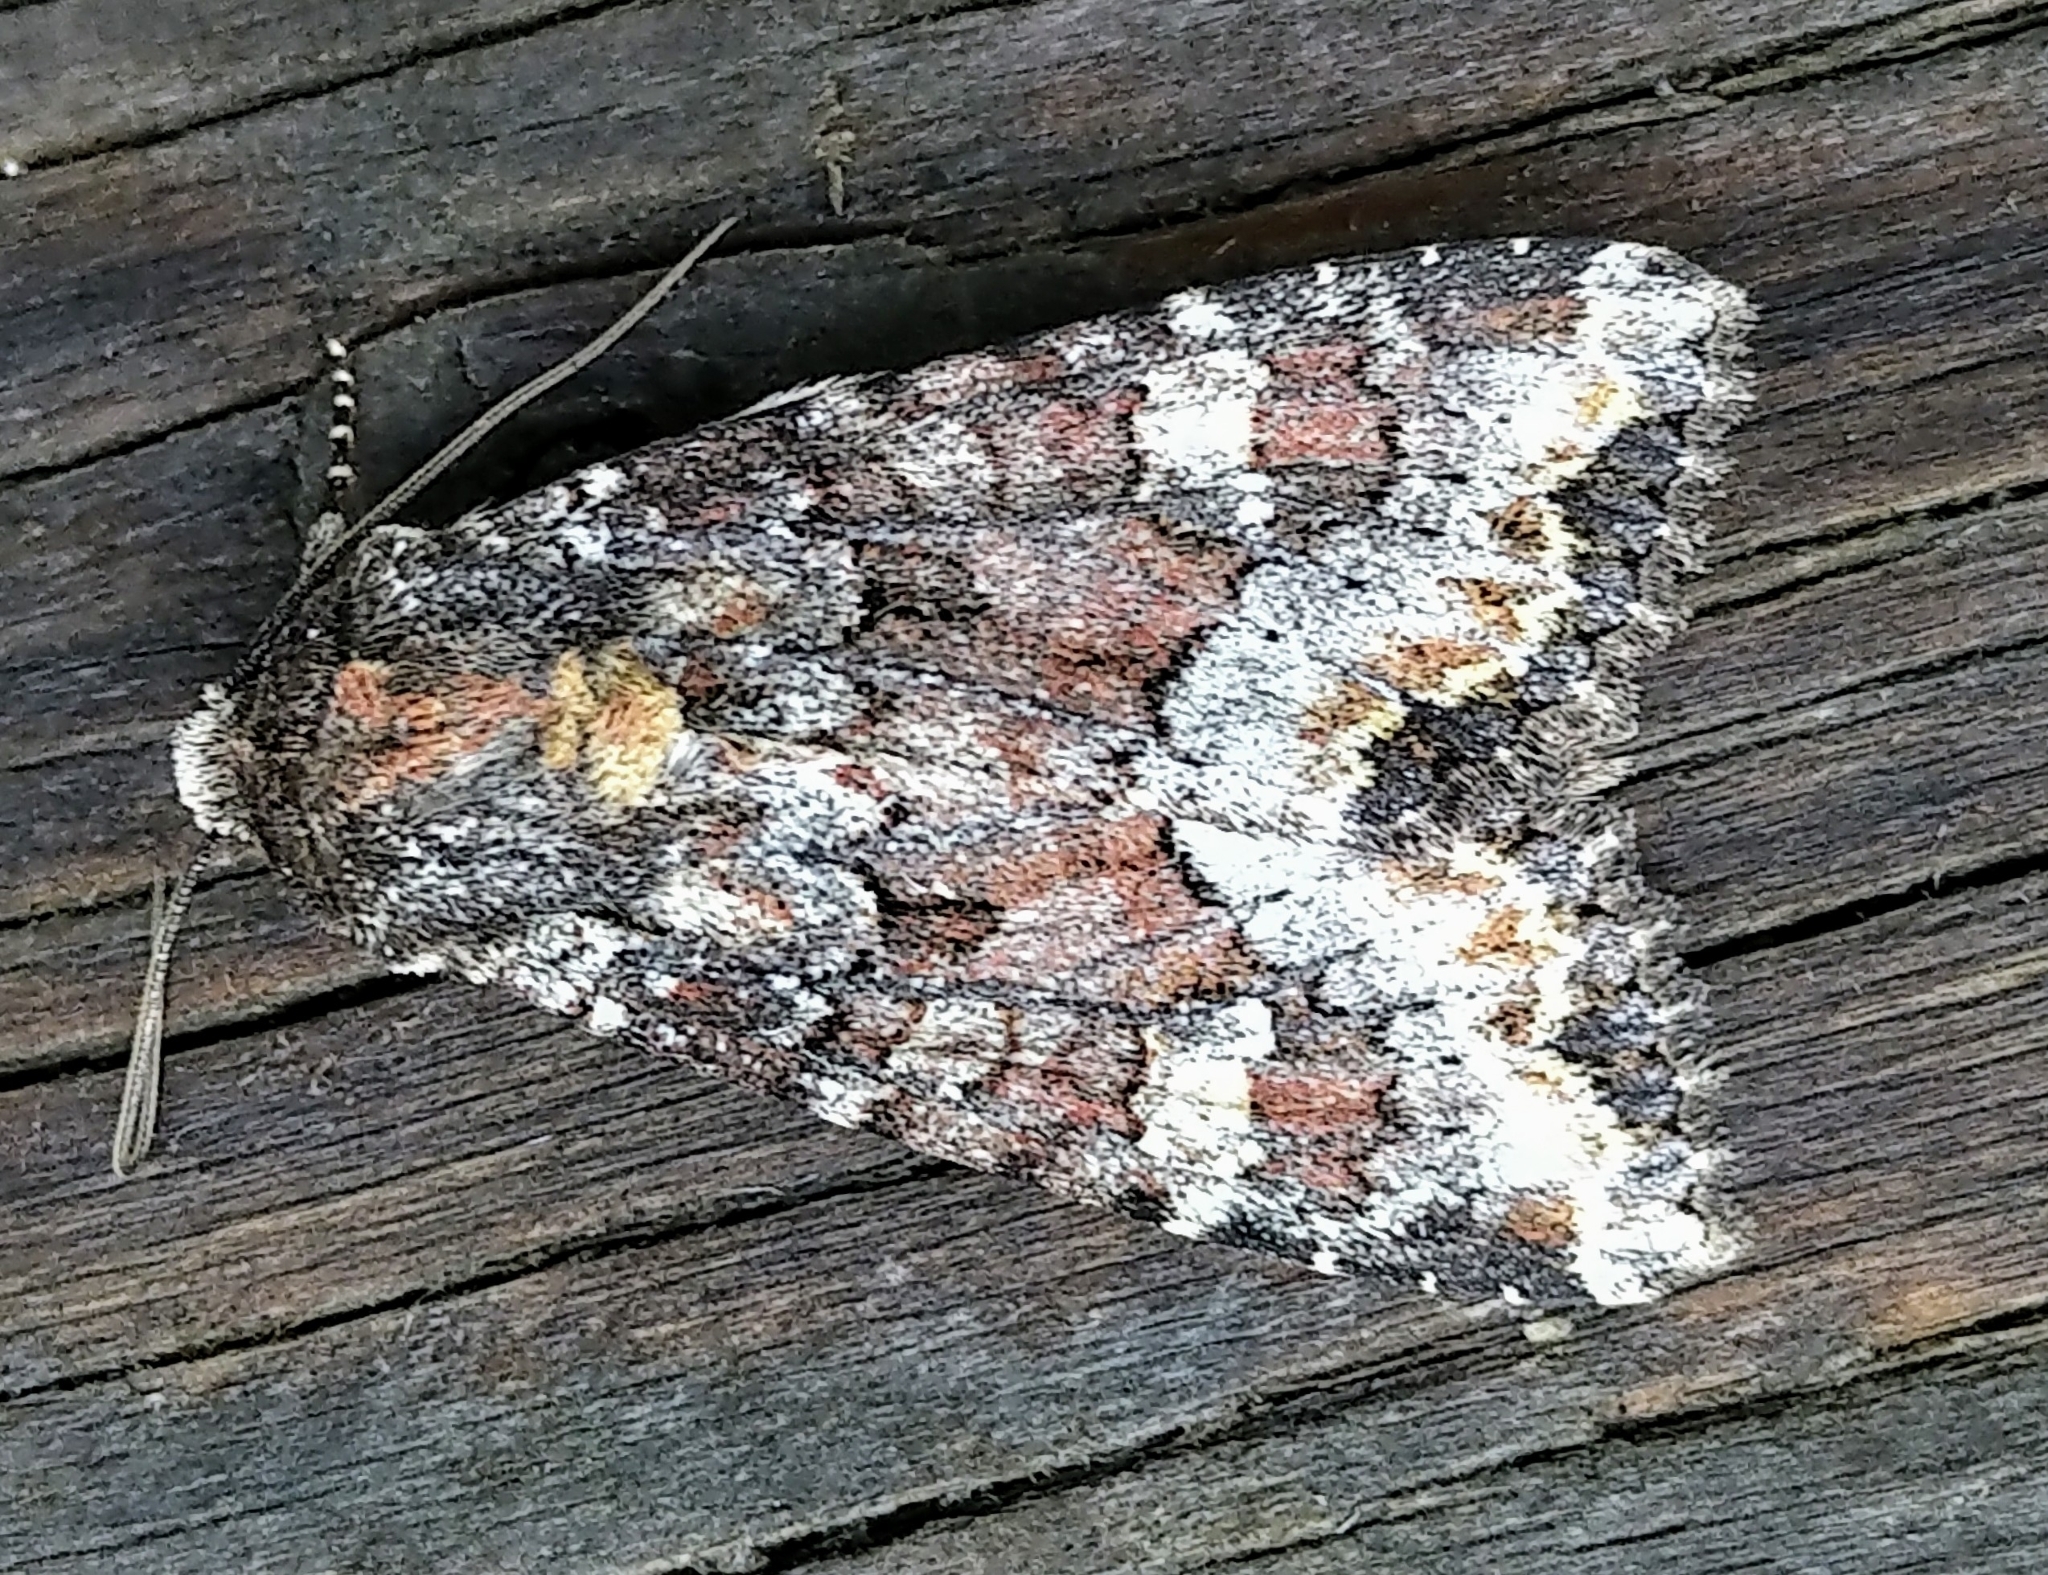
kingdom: Animalia
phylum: Arthropoda
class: Insecta
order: Lepidoptera
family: Noctuidae
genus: Apamea
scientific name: Apamea amputatrix
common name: Yellow-headed cutworm moth
